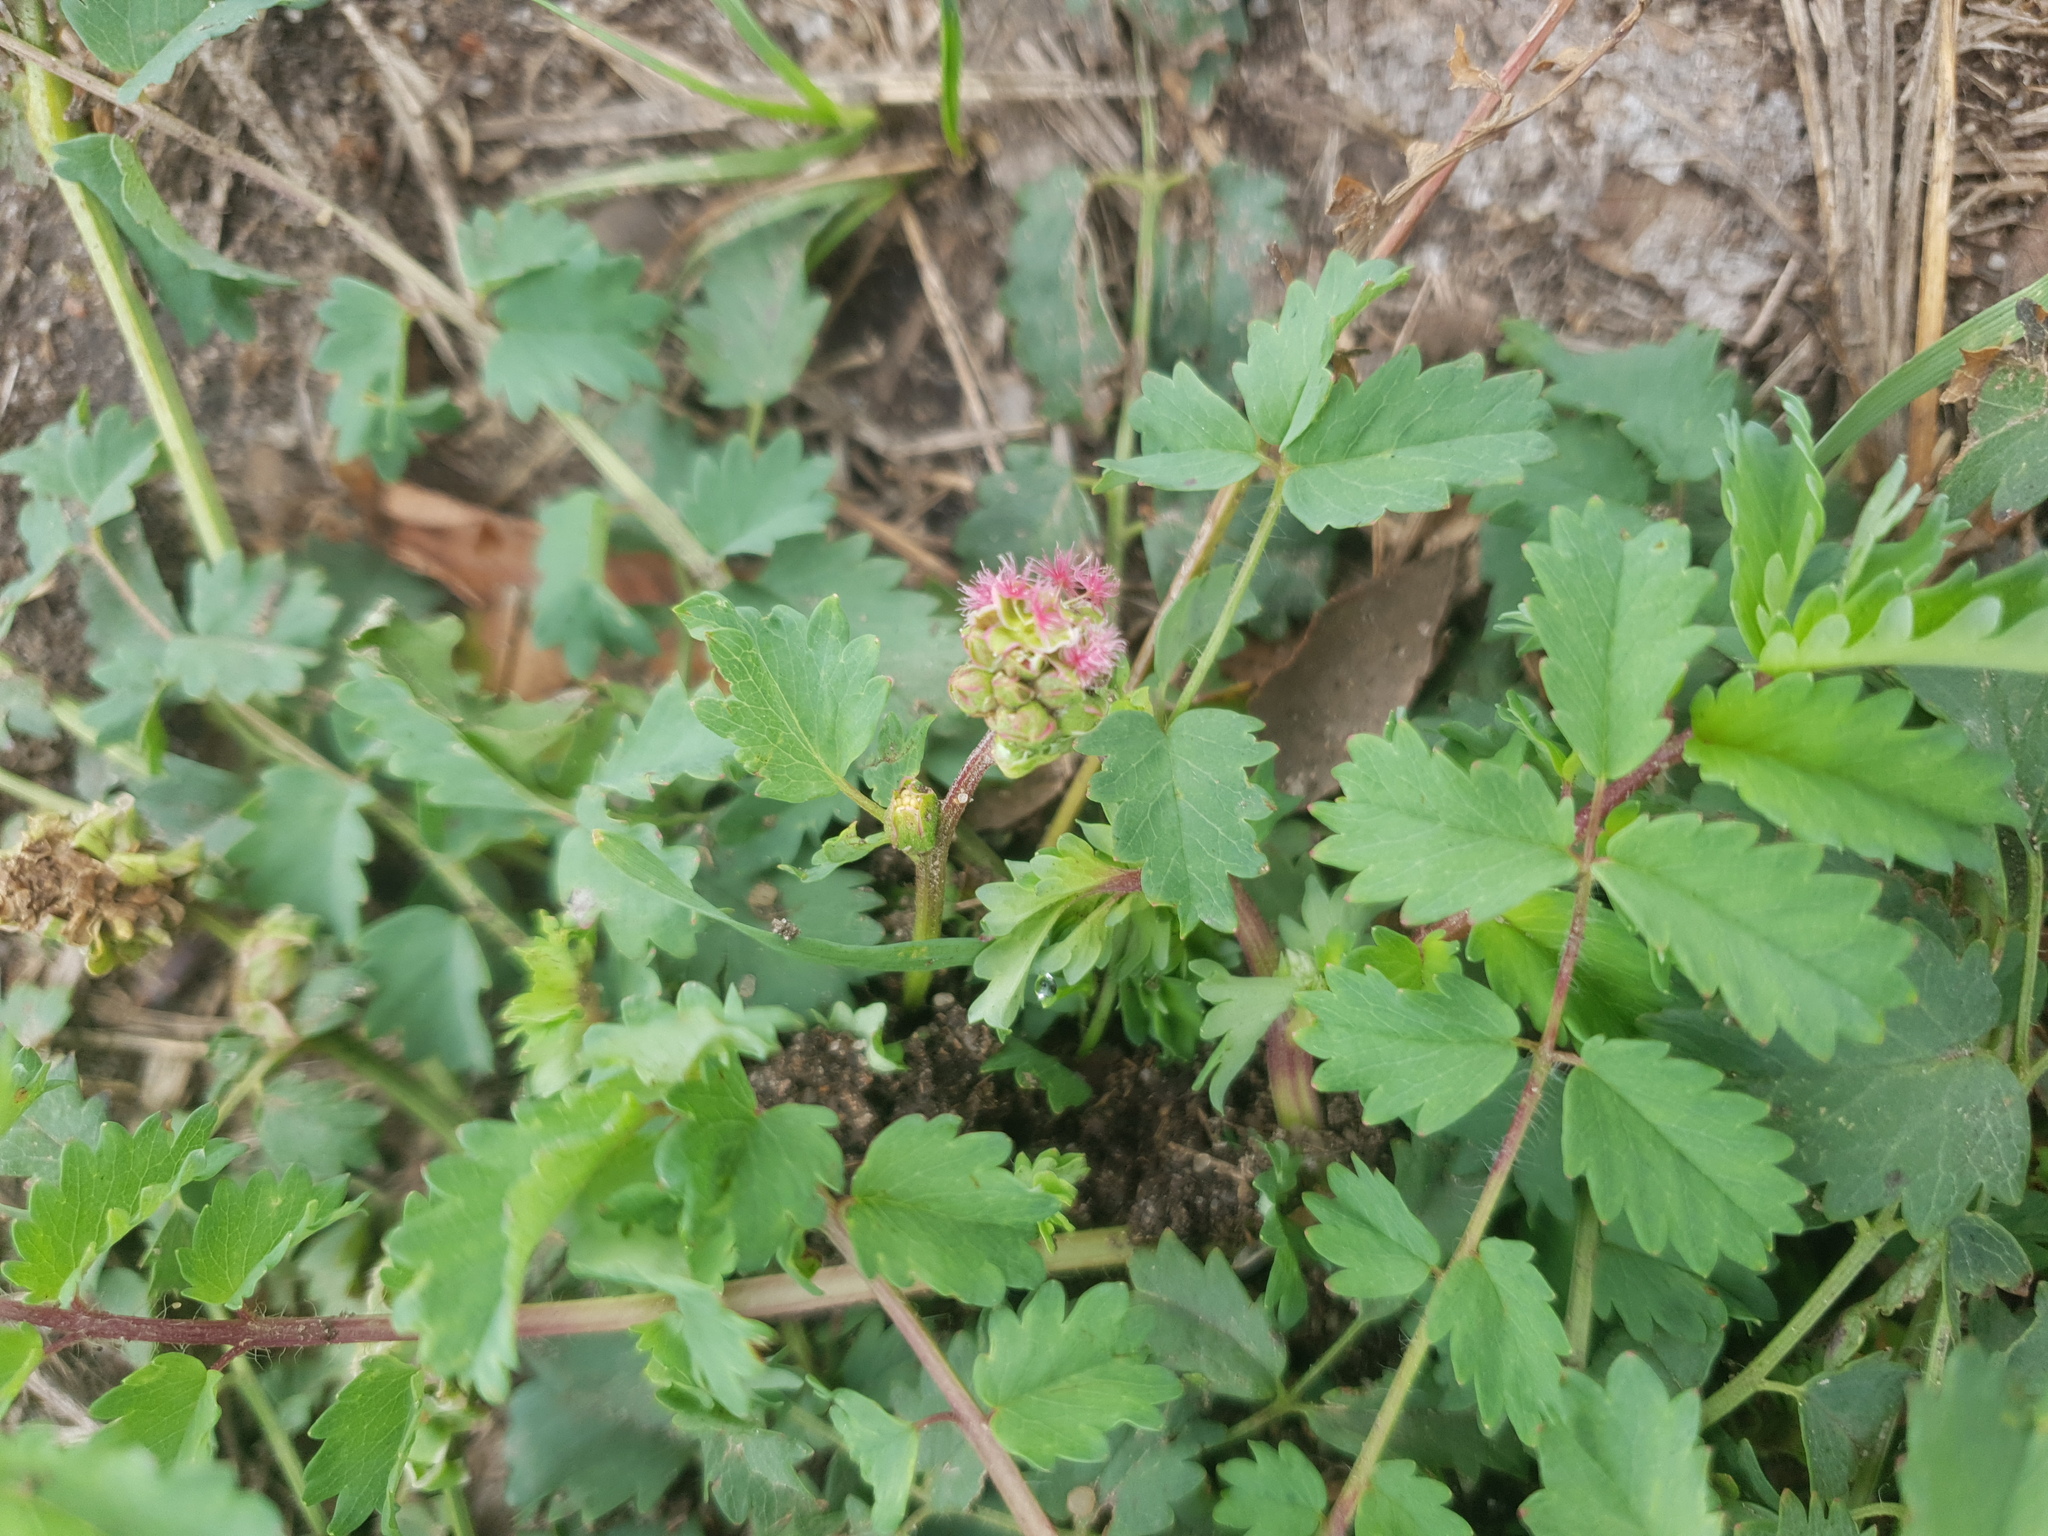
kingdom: Plantae
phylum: Tracheophyta
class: Magnoliopsida
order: Rosales
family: Rosaceae
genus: Poterium
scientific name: Poterium sanguisorba
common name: Salad burnet
